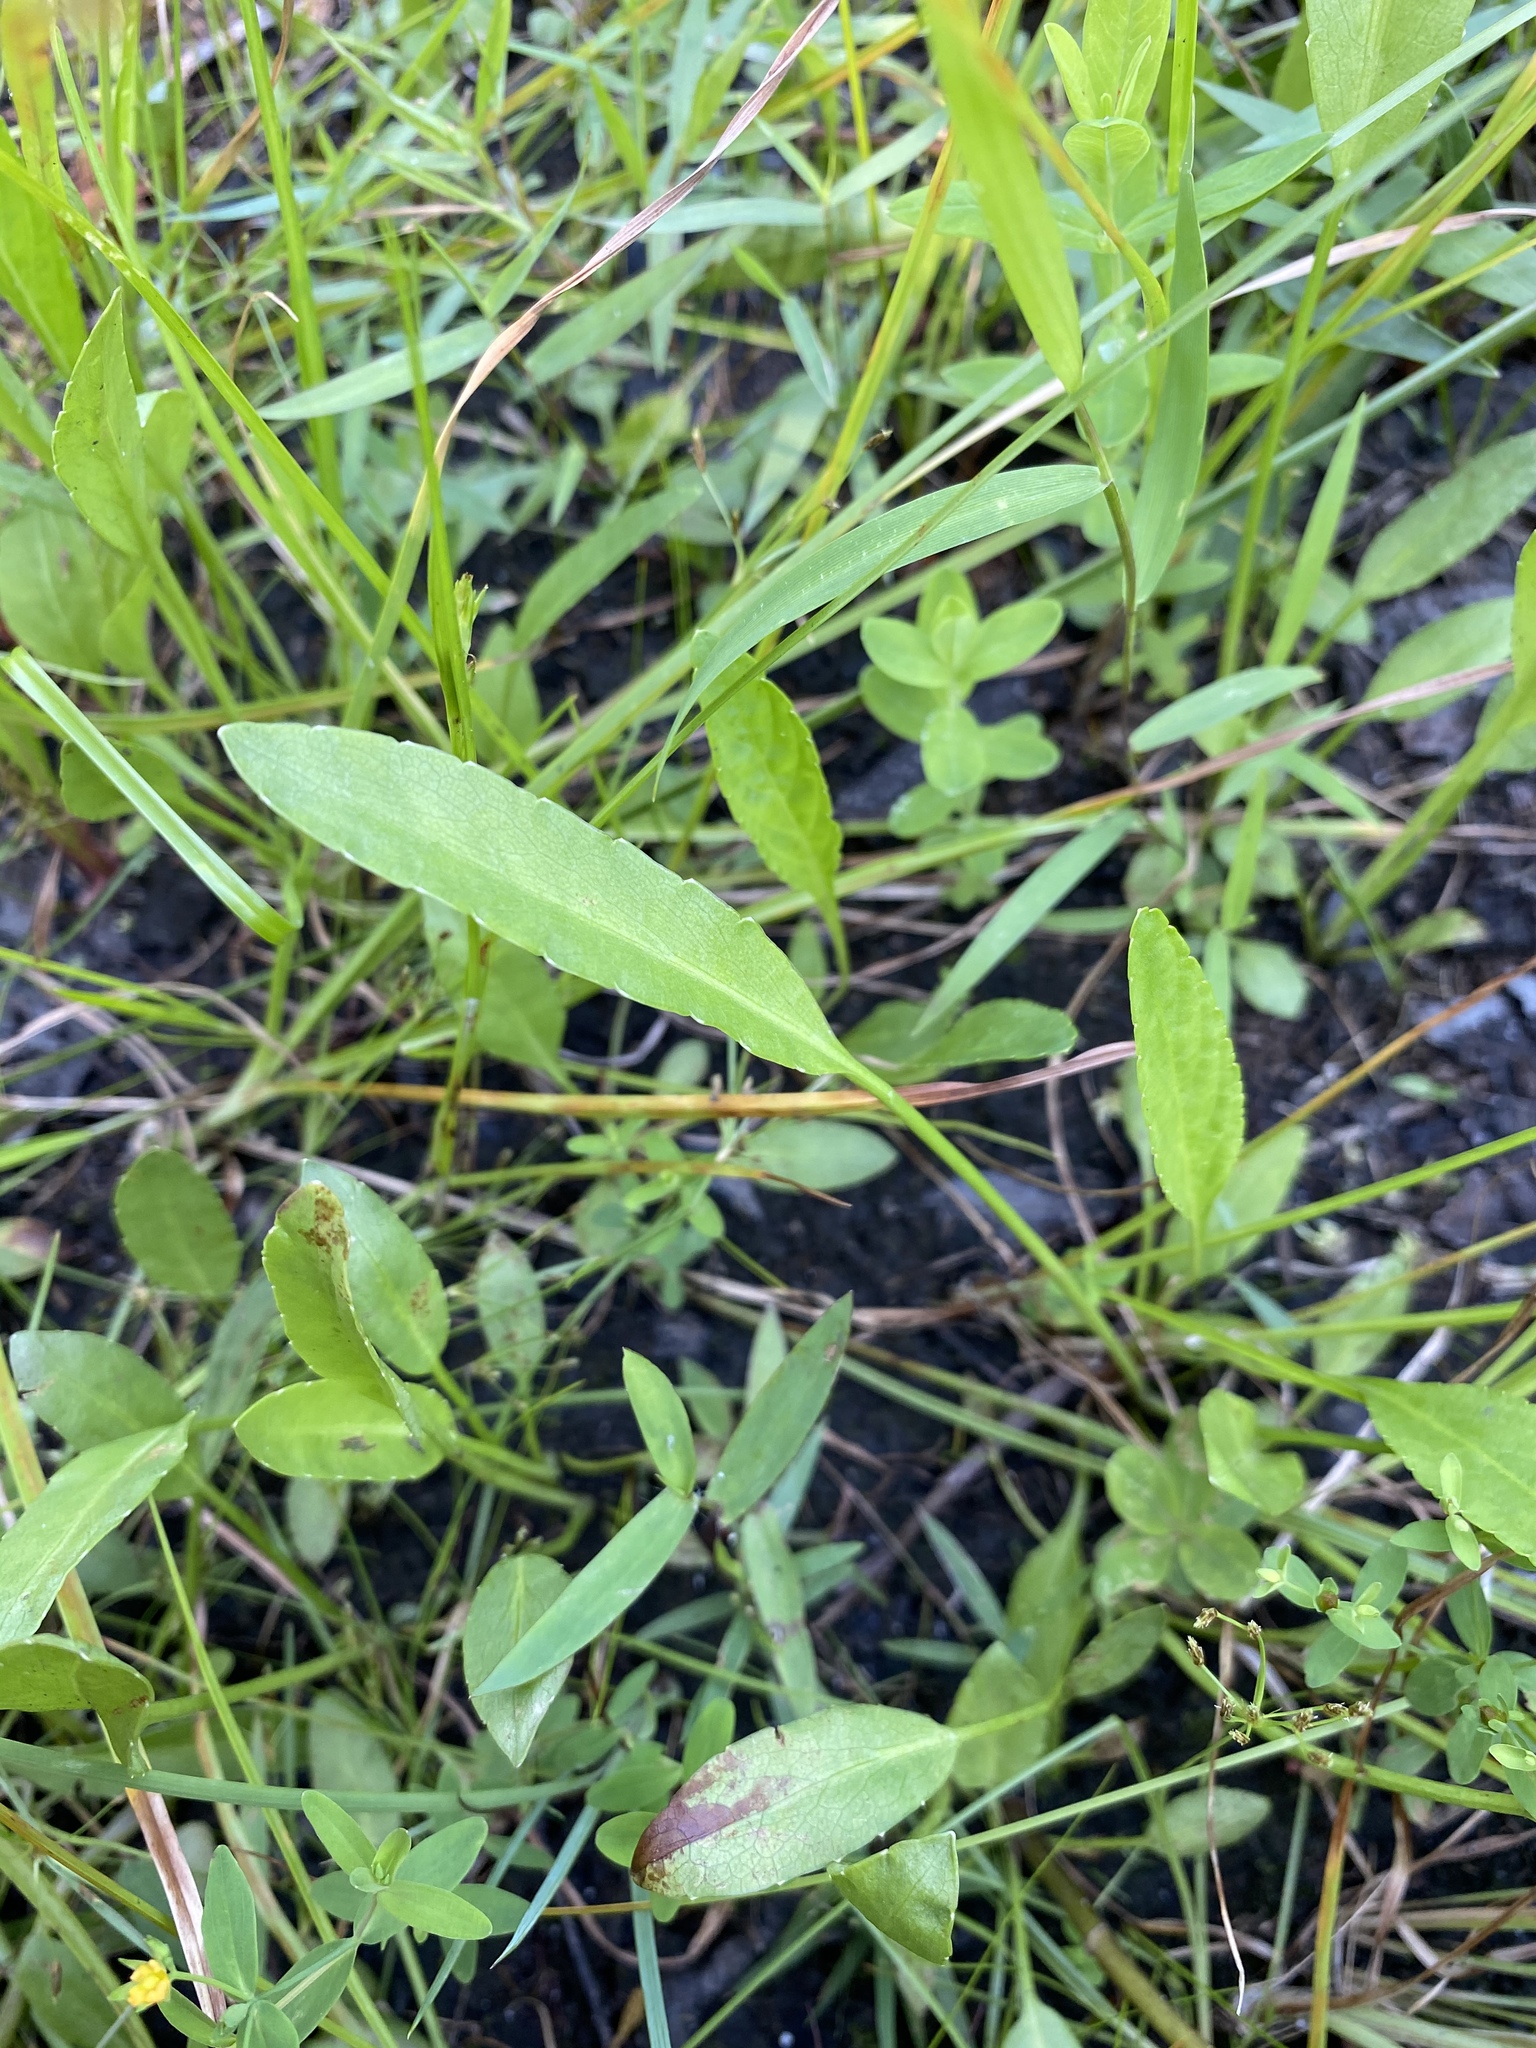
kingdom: Plantae
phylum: Tracheophyta
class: Magnoliopsida
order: Malpighiales
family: Violaceae
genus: Viola
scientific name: Viola lanceolata
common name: Bog white violet
